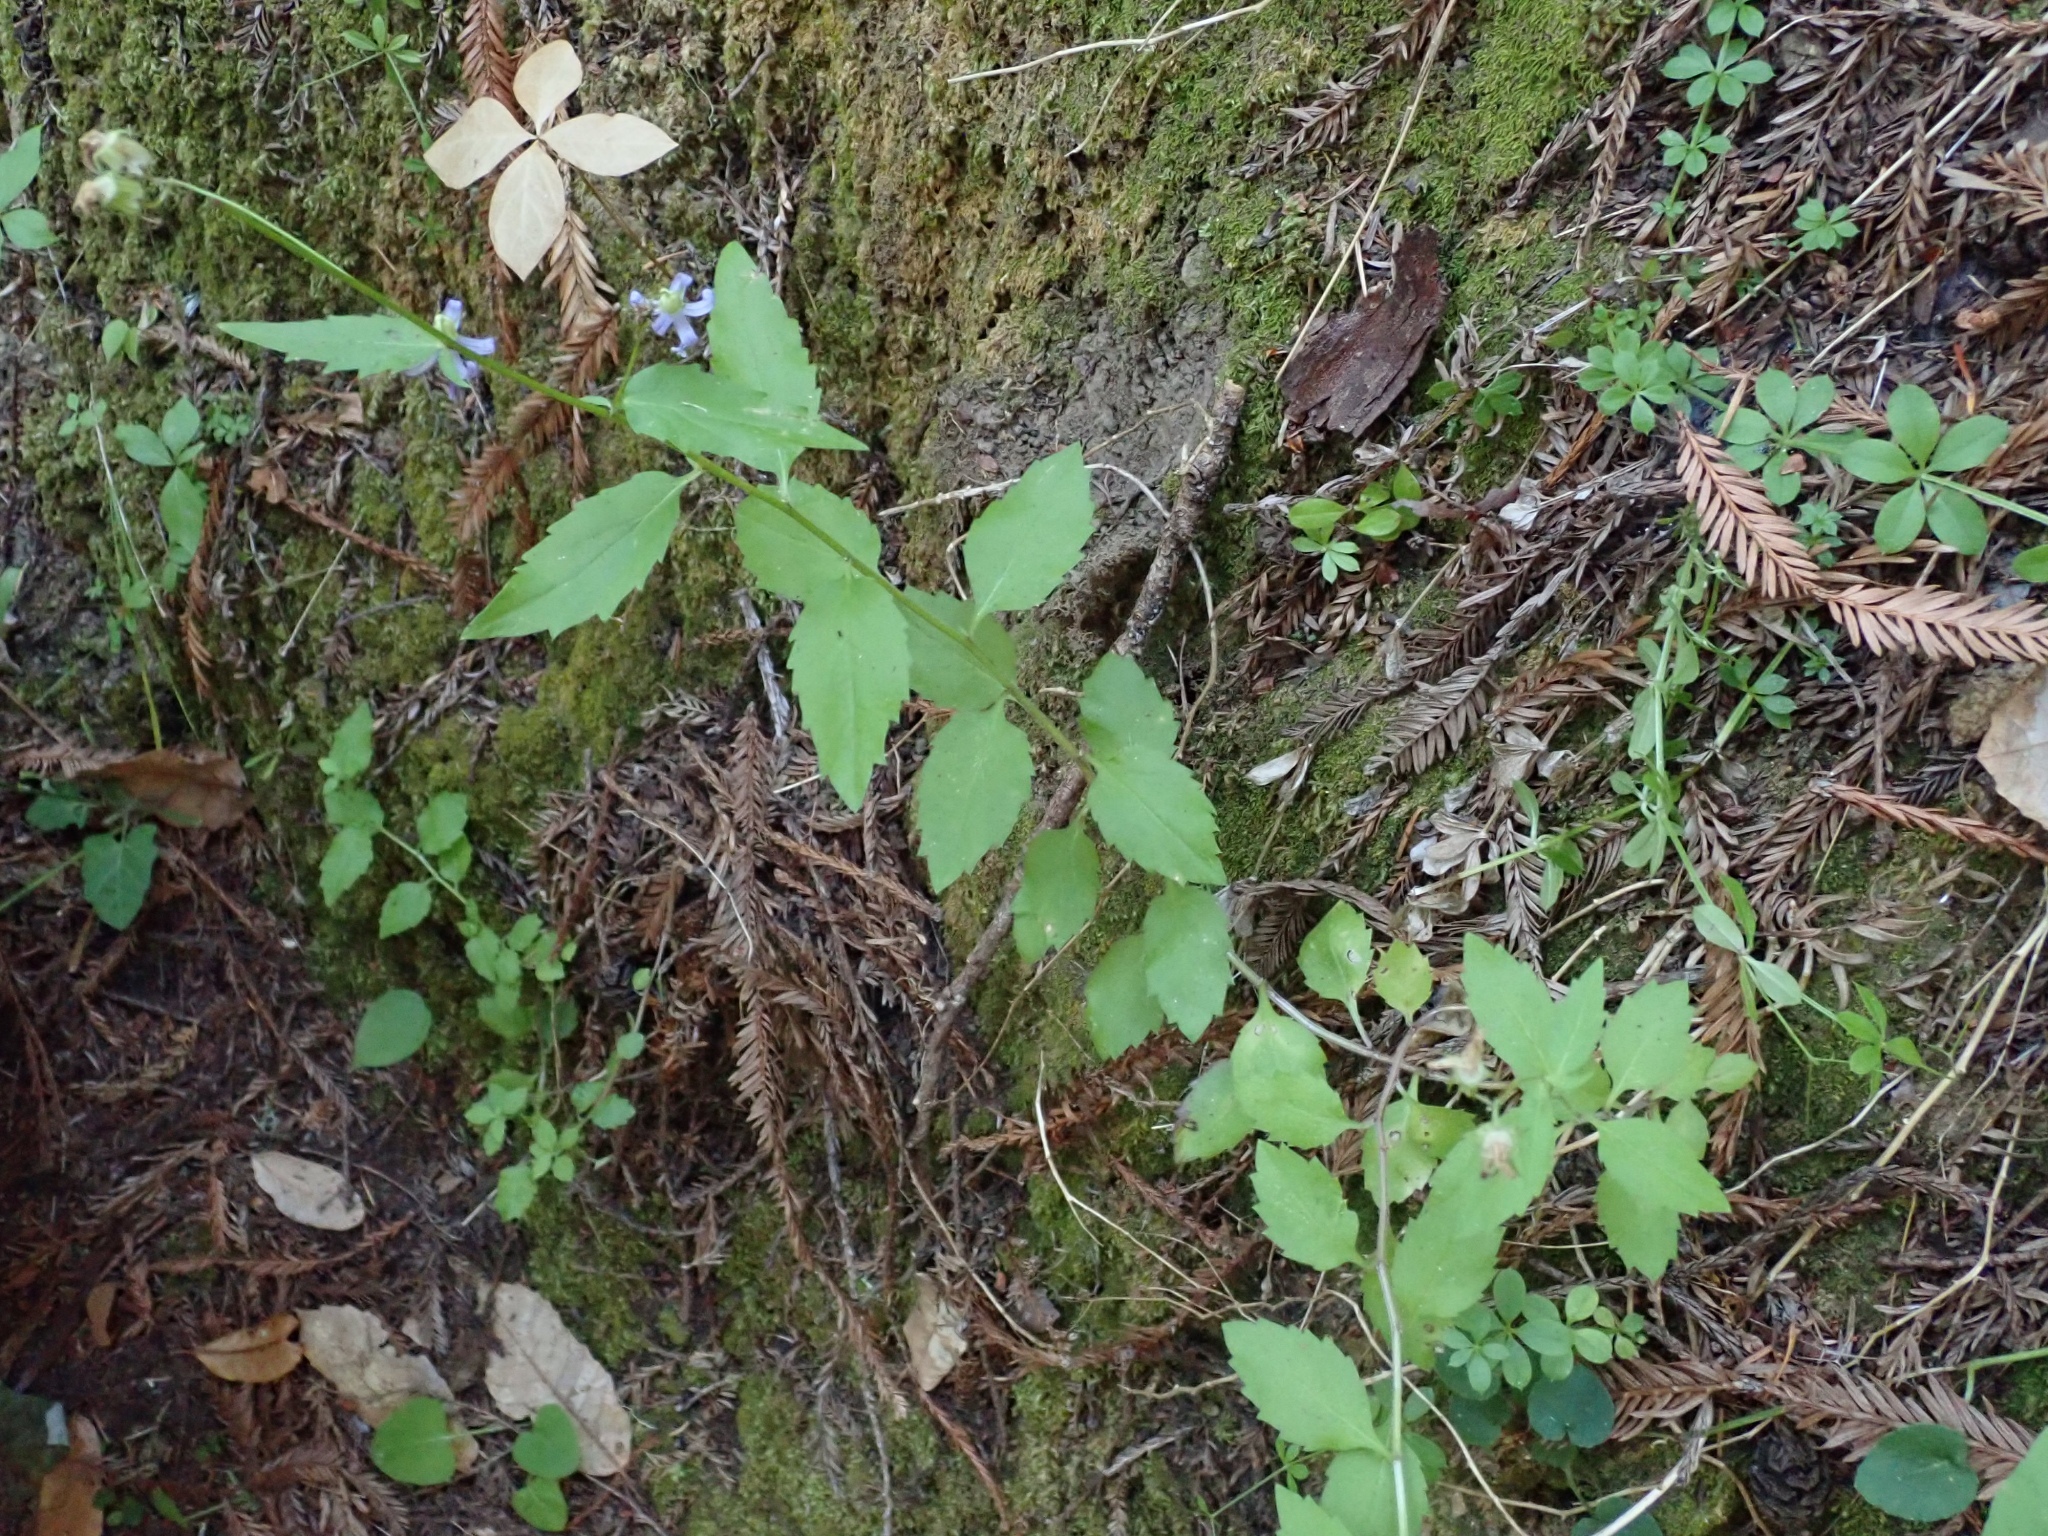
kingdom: Plantae
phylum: Tracheophyta
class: Magnoliopsida
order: Asterales
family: Campanulaceae
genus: Smithiastrum
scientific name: Smithiastrum prenanthoides
